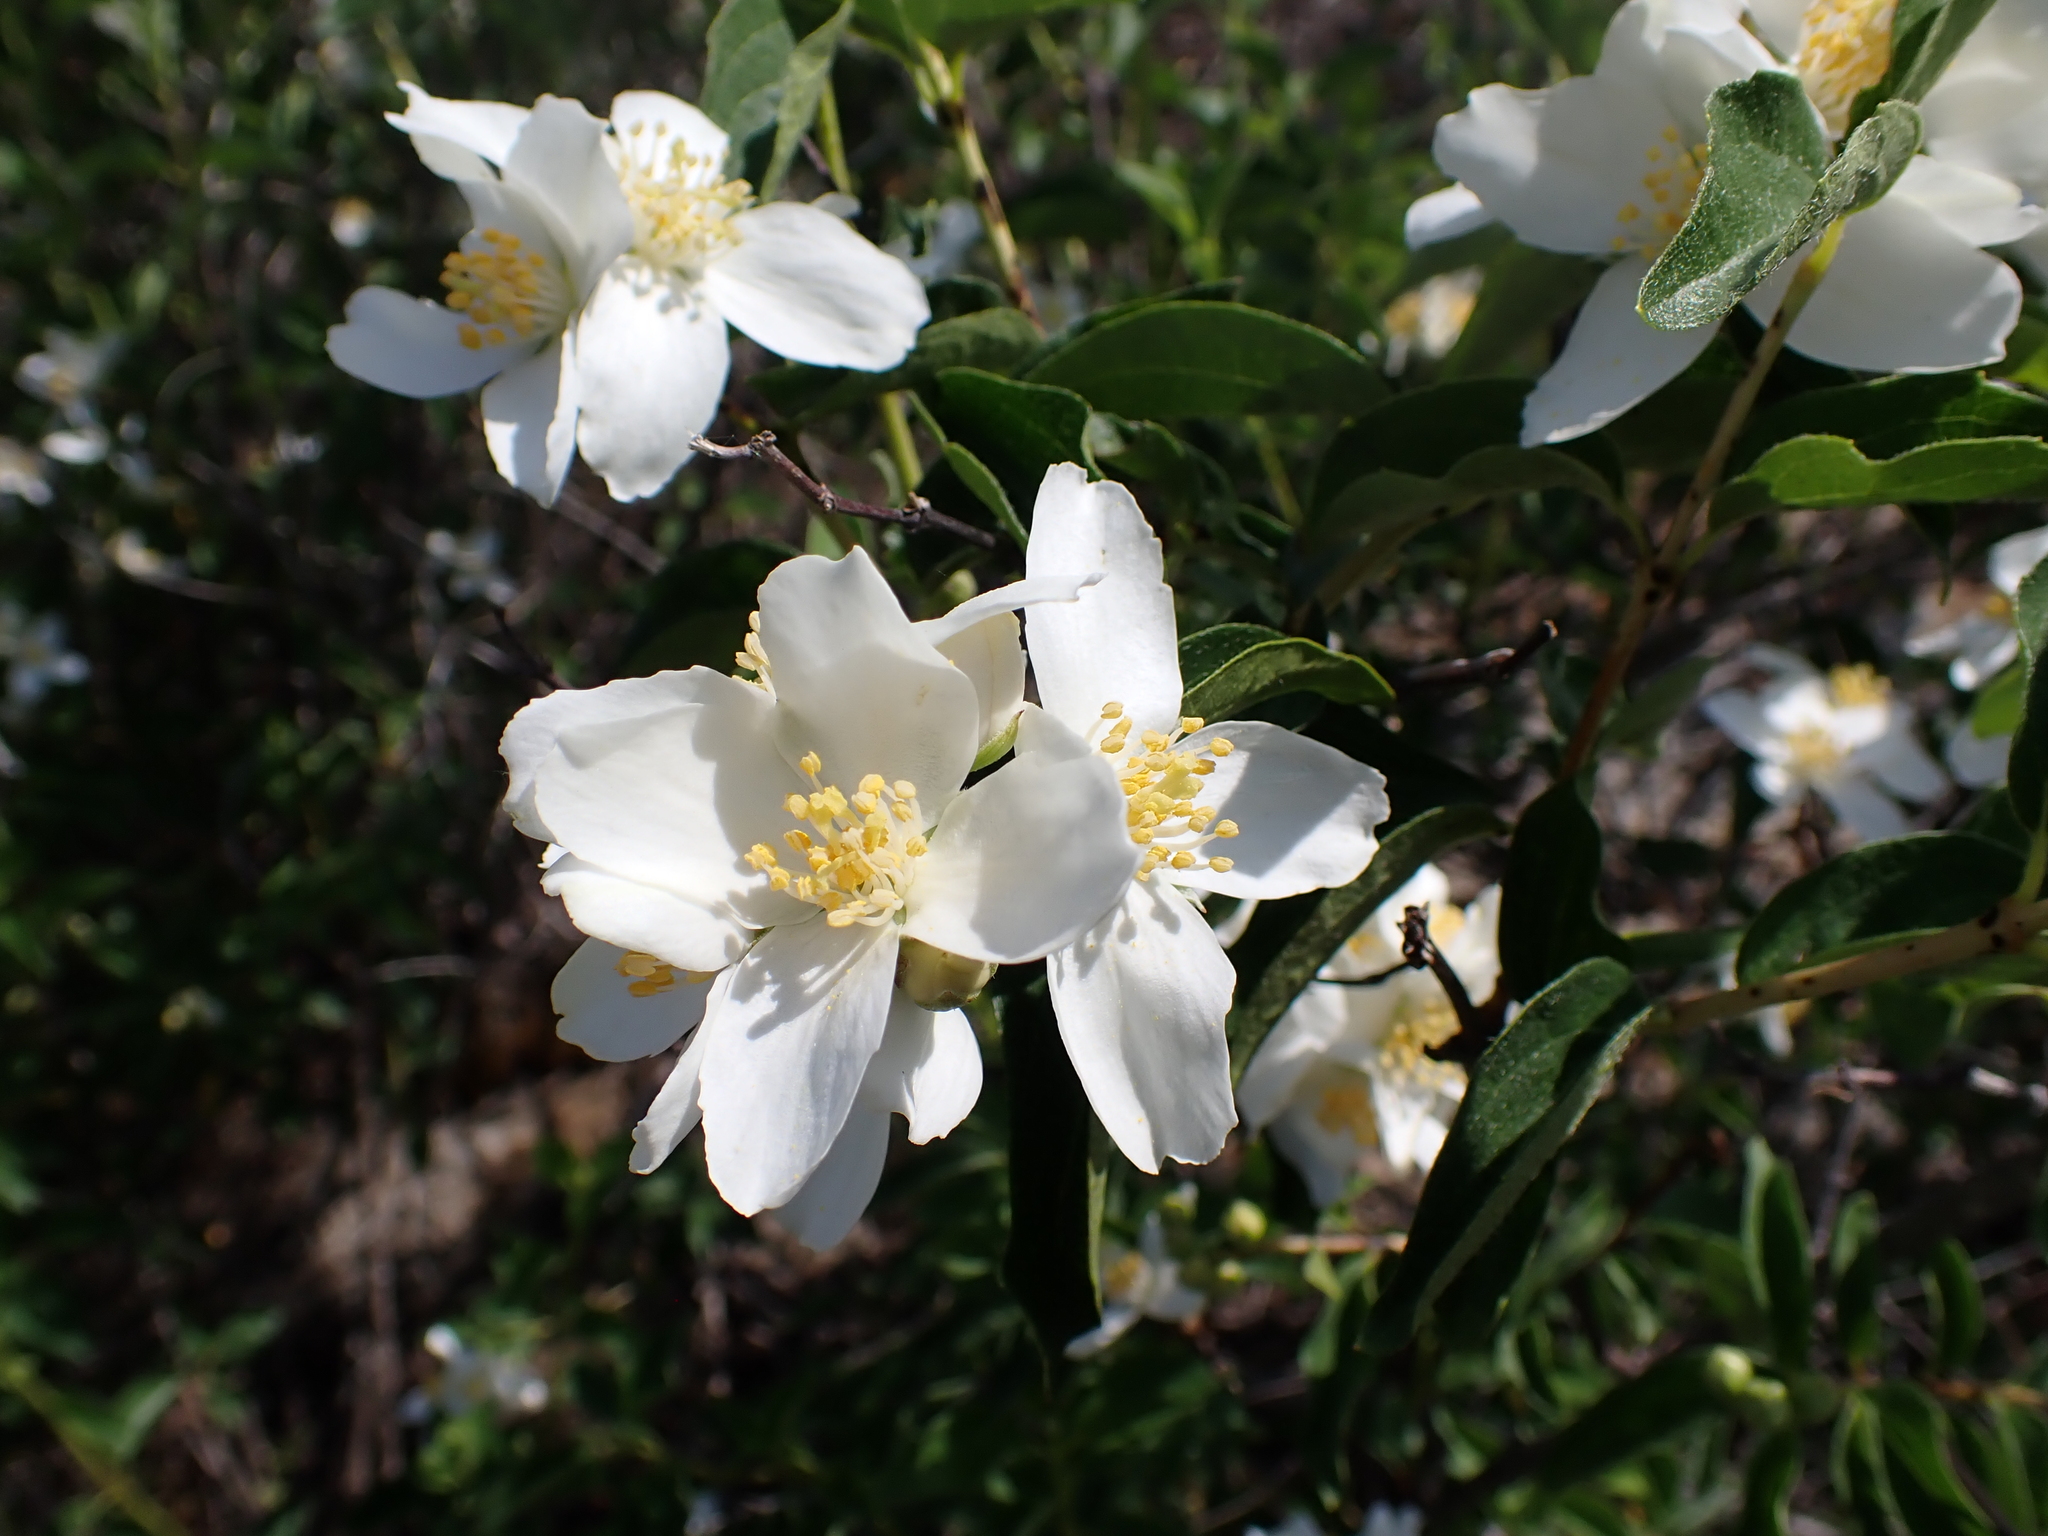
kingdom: Plantae
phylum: Tracheophyta
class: Magnoliopsida
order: Cornales
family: Hydrangeaceae
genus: Philadelphus
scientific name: Philadelphus lewisii
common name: Lewis's mock orange
